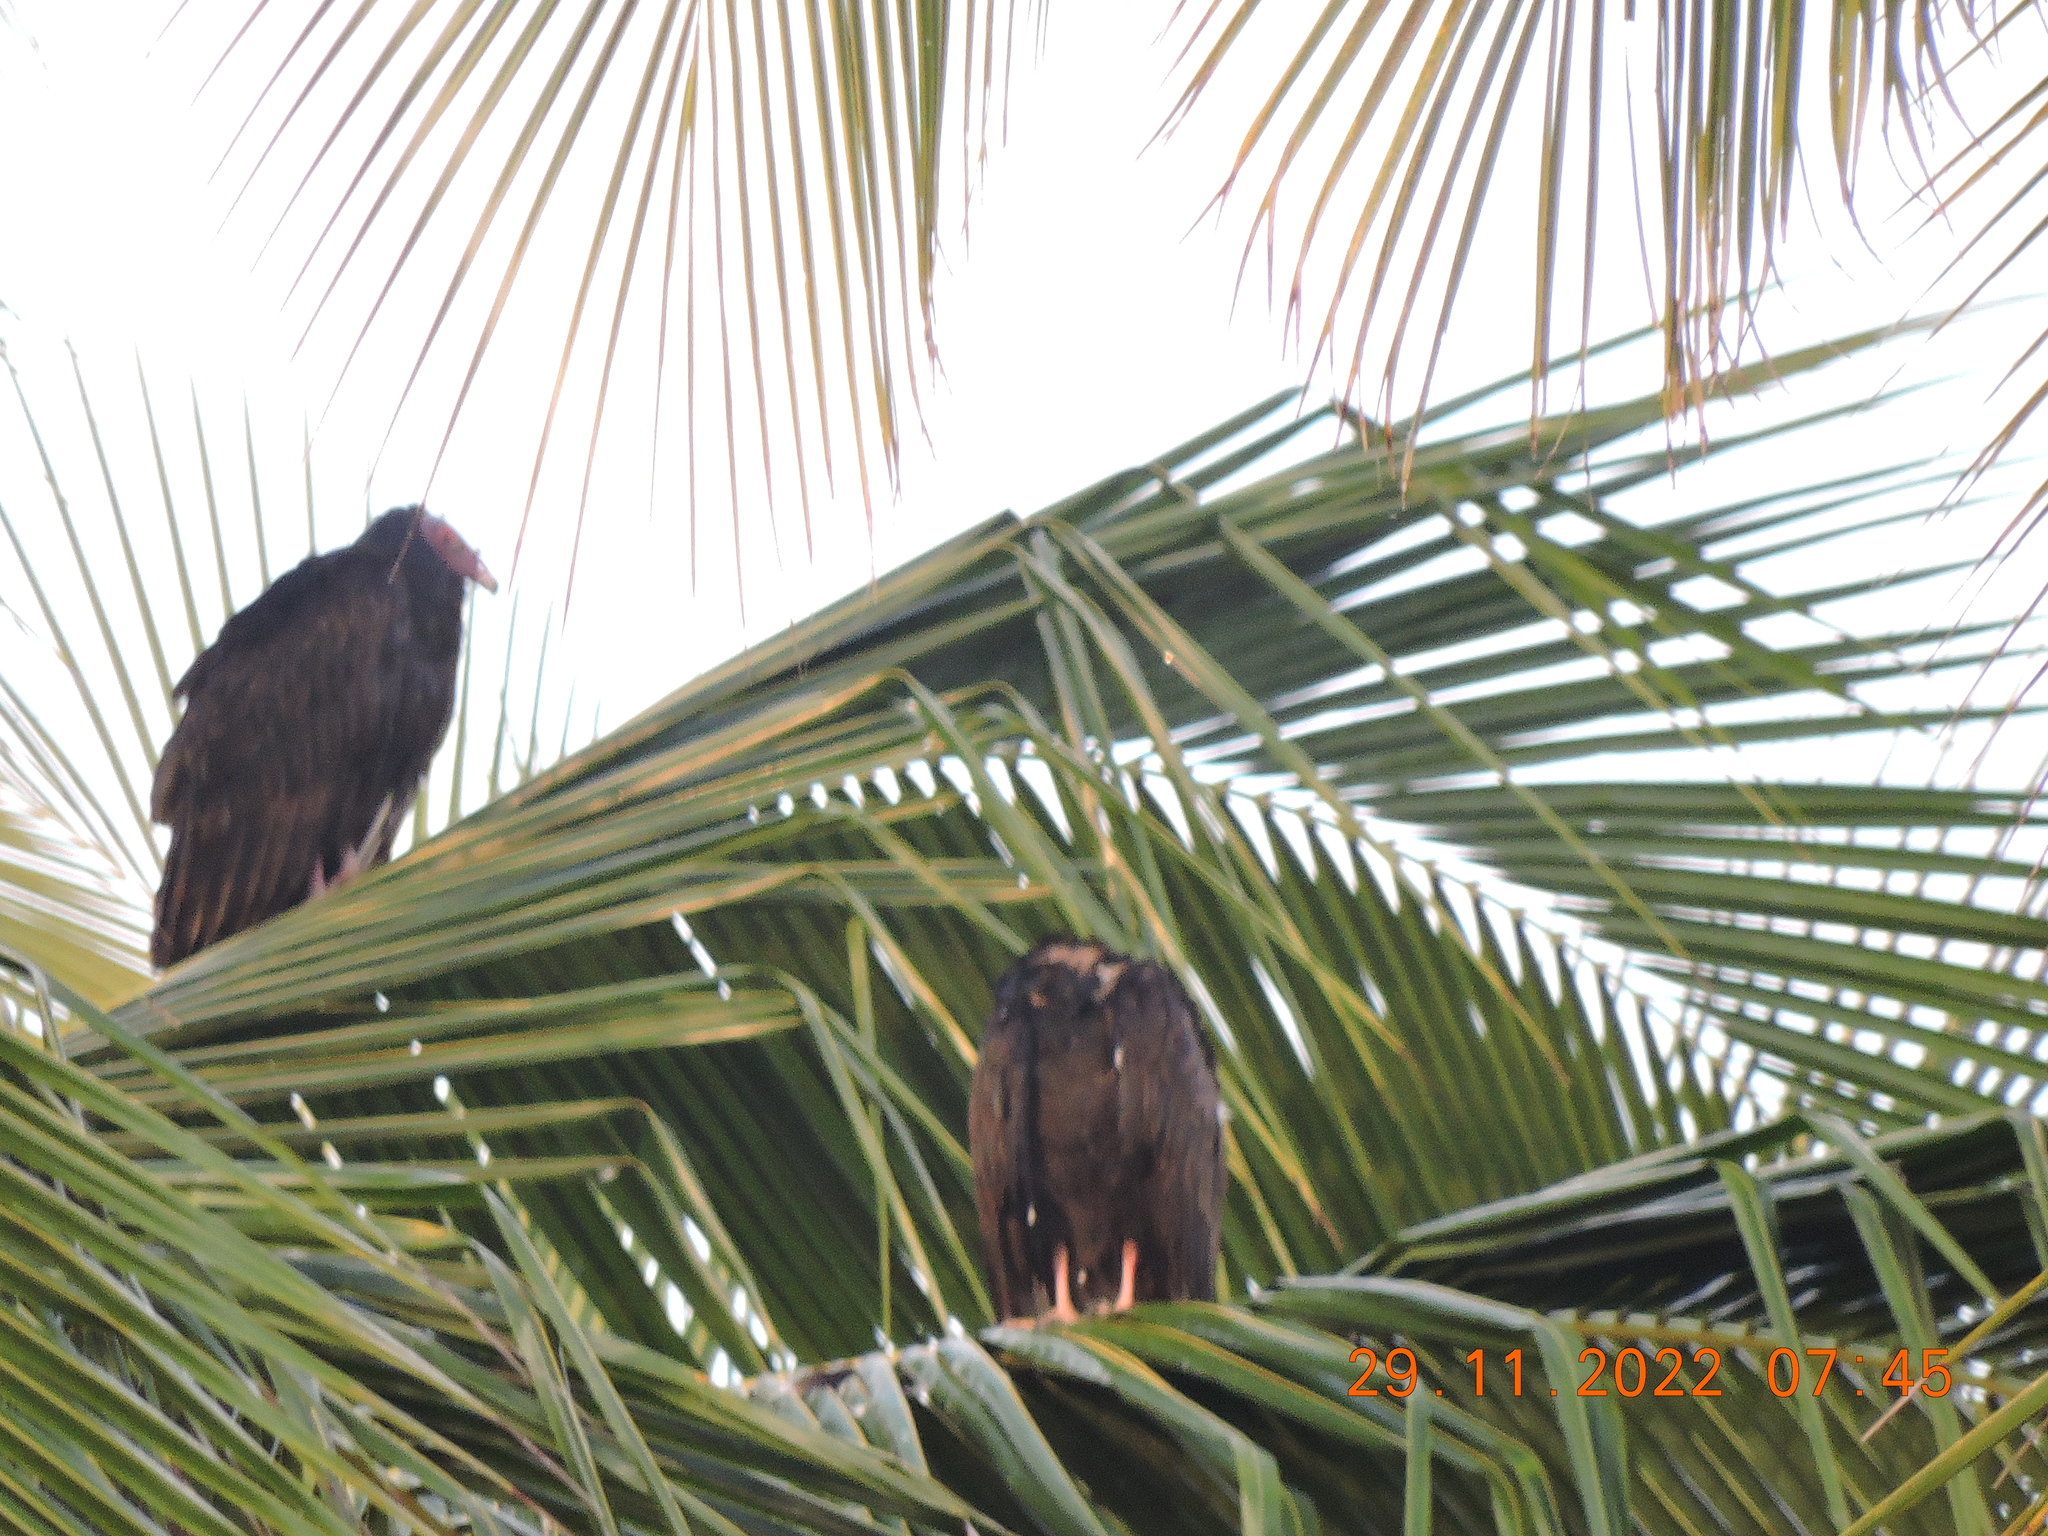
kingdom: Animalia
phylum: Chordata
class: Aves
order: Accipitriformes
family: Cathartidae
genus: Cathartes
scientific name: Cathartes aura
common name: Turkey vulture
